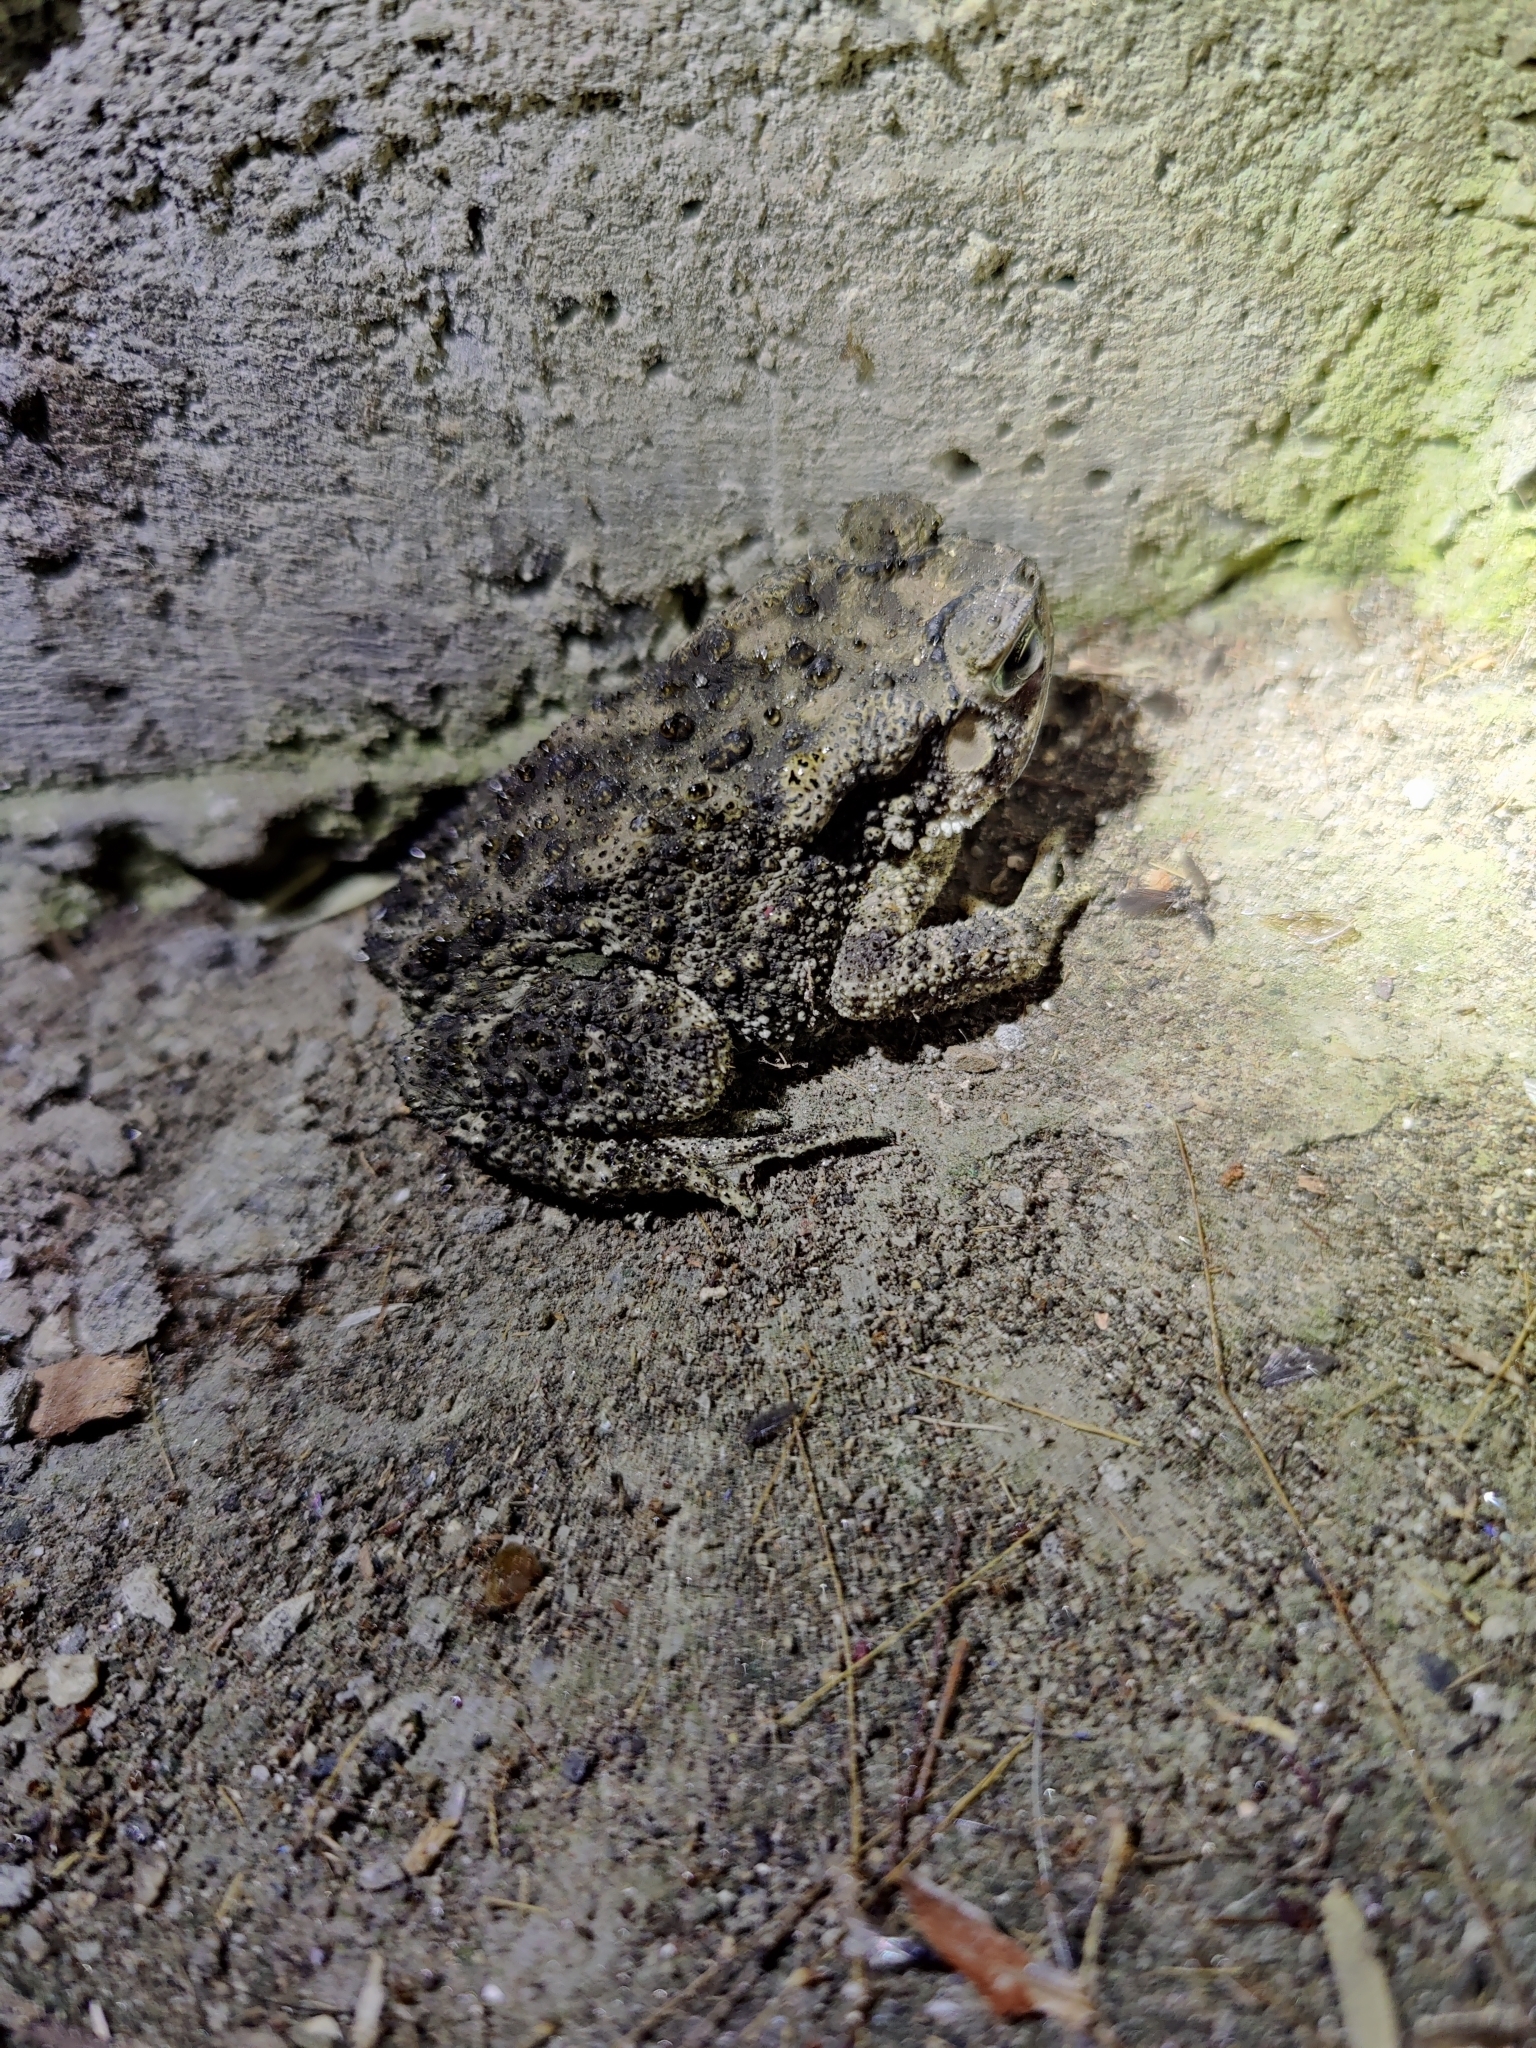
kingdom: Animalia
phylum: Chordata
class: Amphibia
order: Anura
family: Bufonidae
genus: Duttaphrynus
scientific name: Duttaphrynus melanostictus
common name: Common sunda toad
